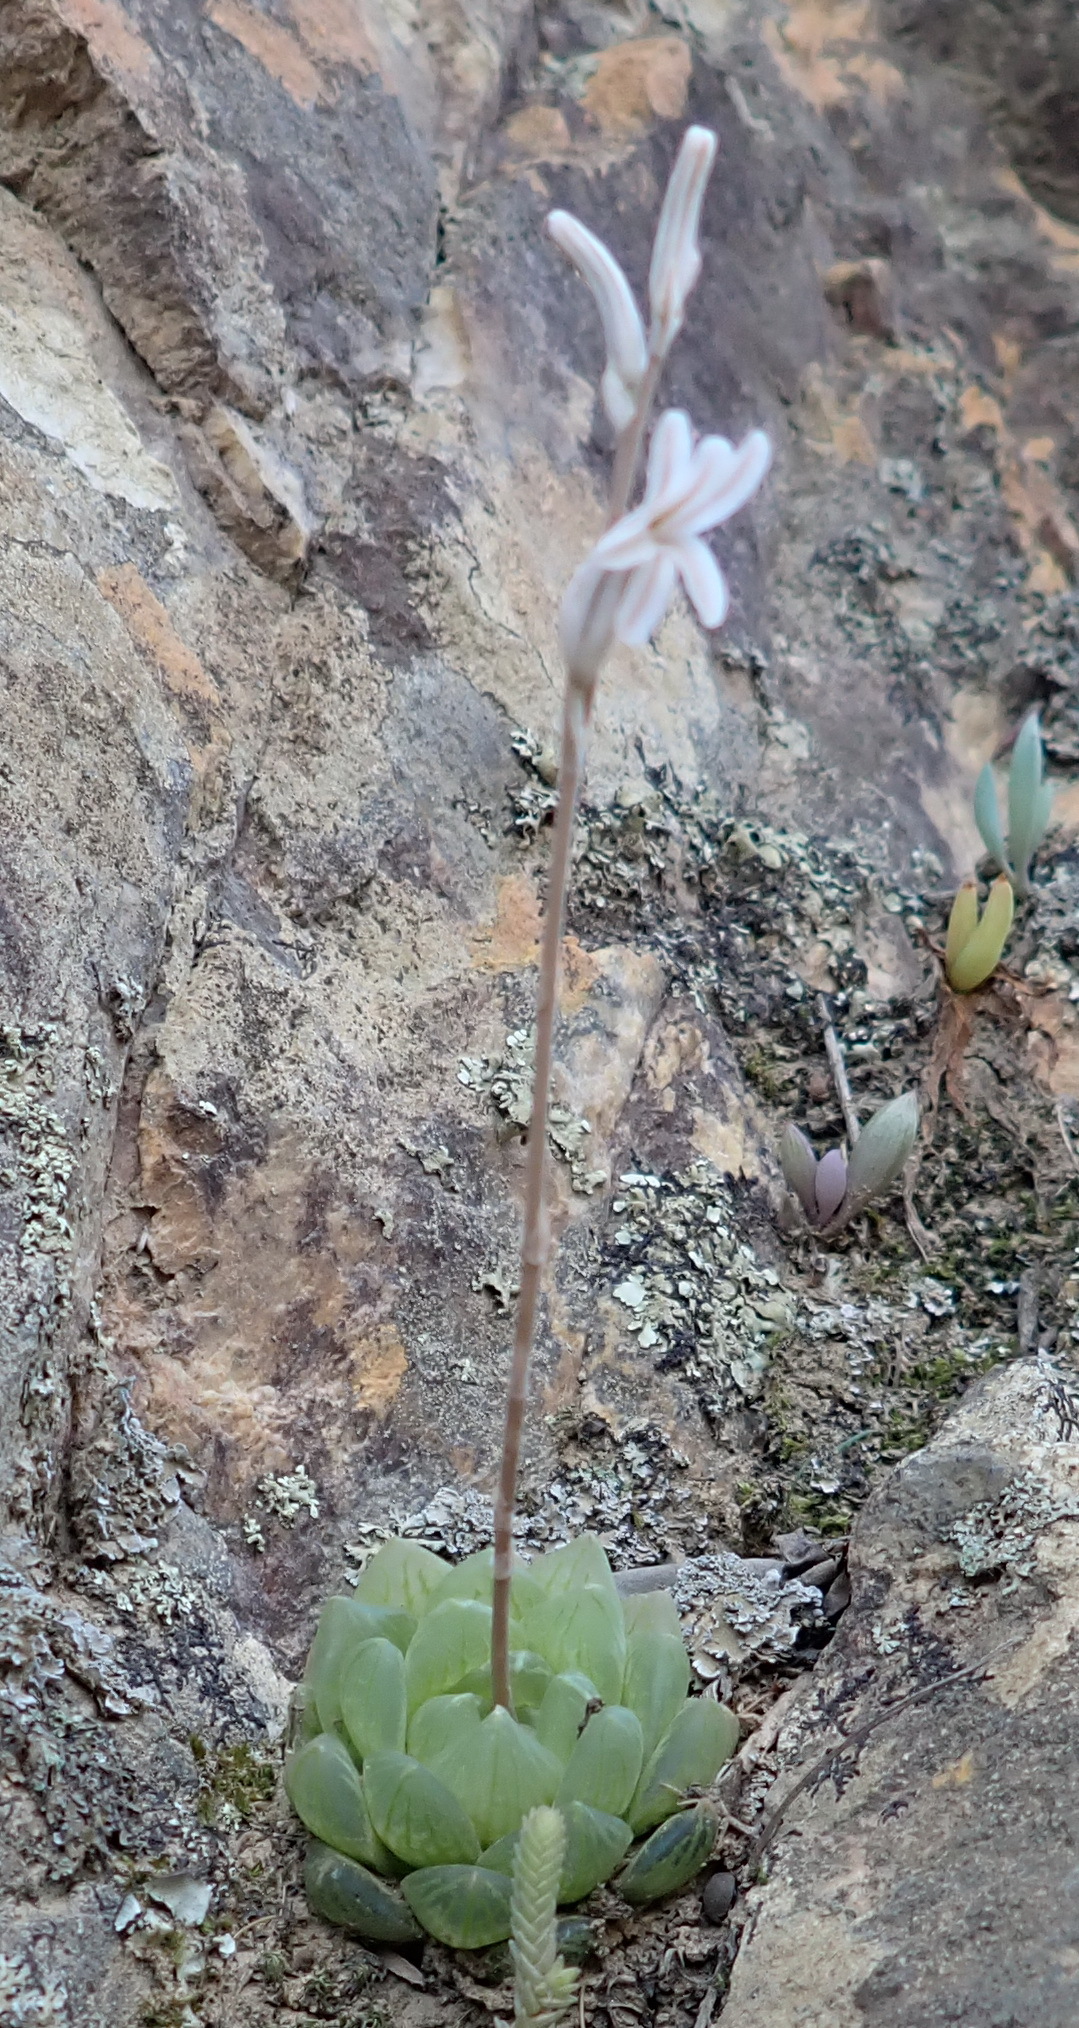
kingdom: Plantae
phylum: Tracheophyta
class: Liliopsida
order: Asparagales
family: Asphodelaceae
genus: Haworthia
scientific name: Haworthia transiens
